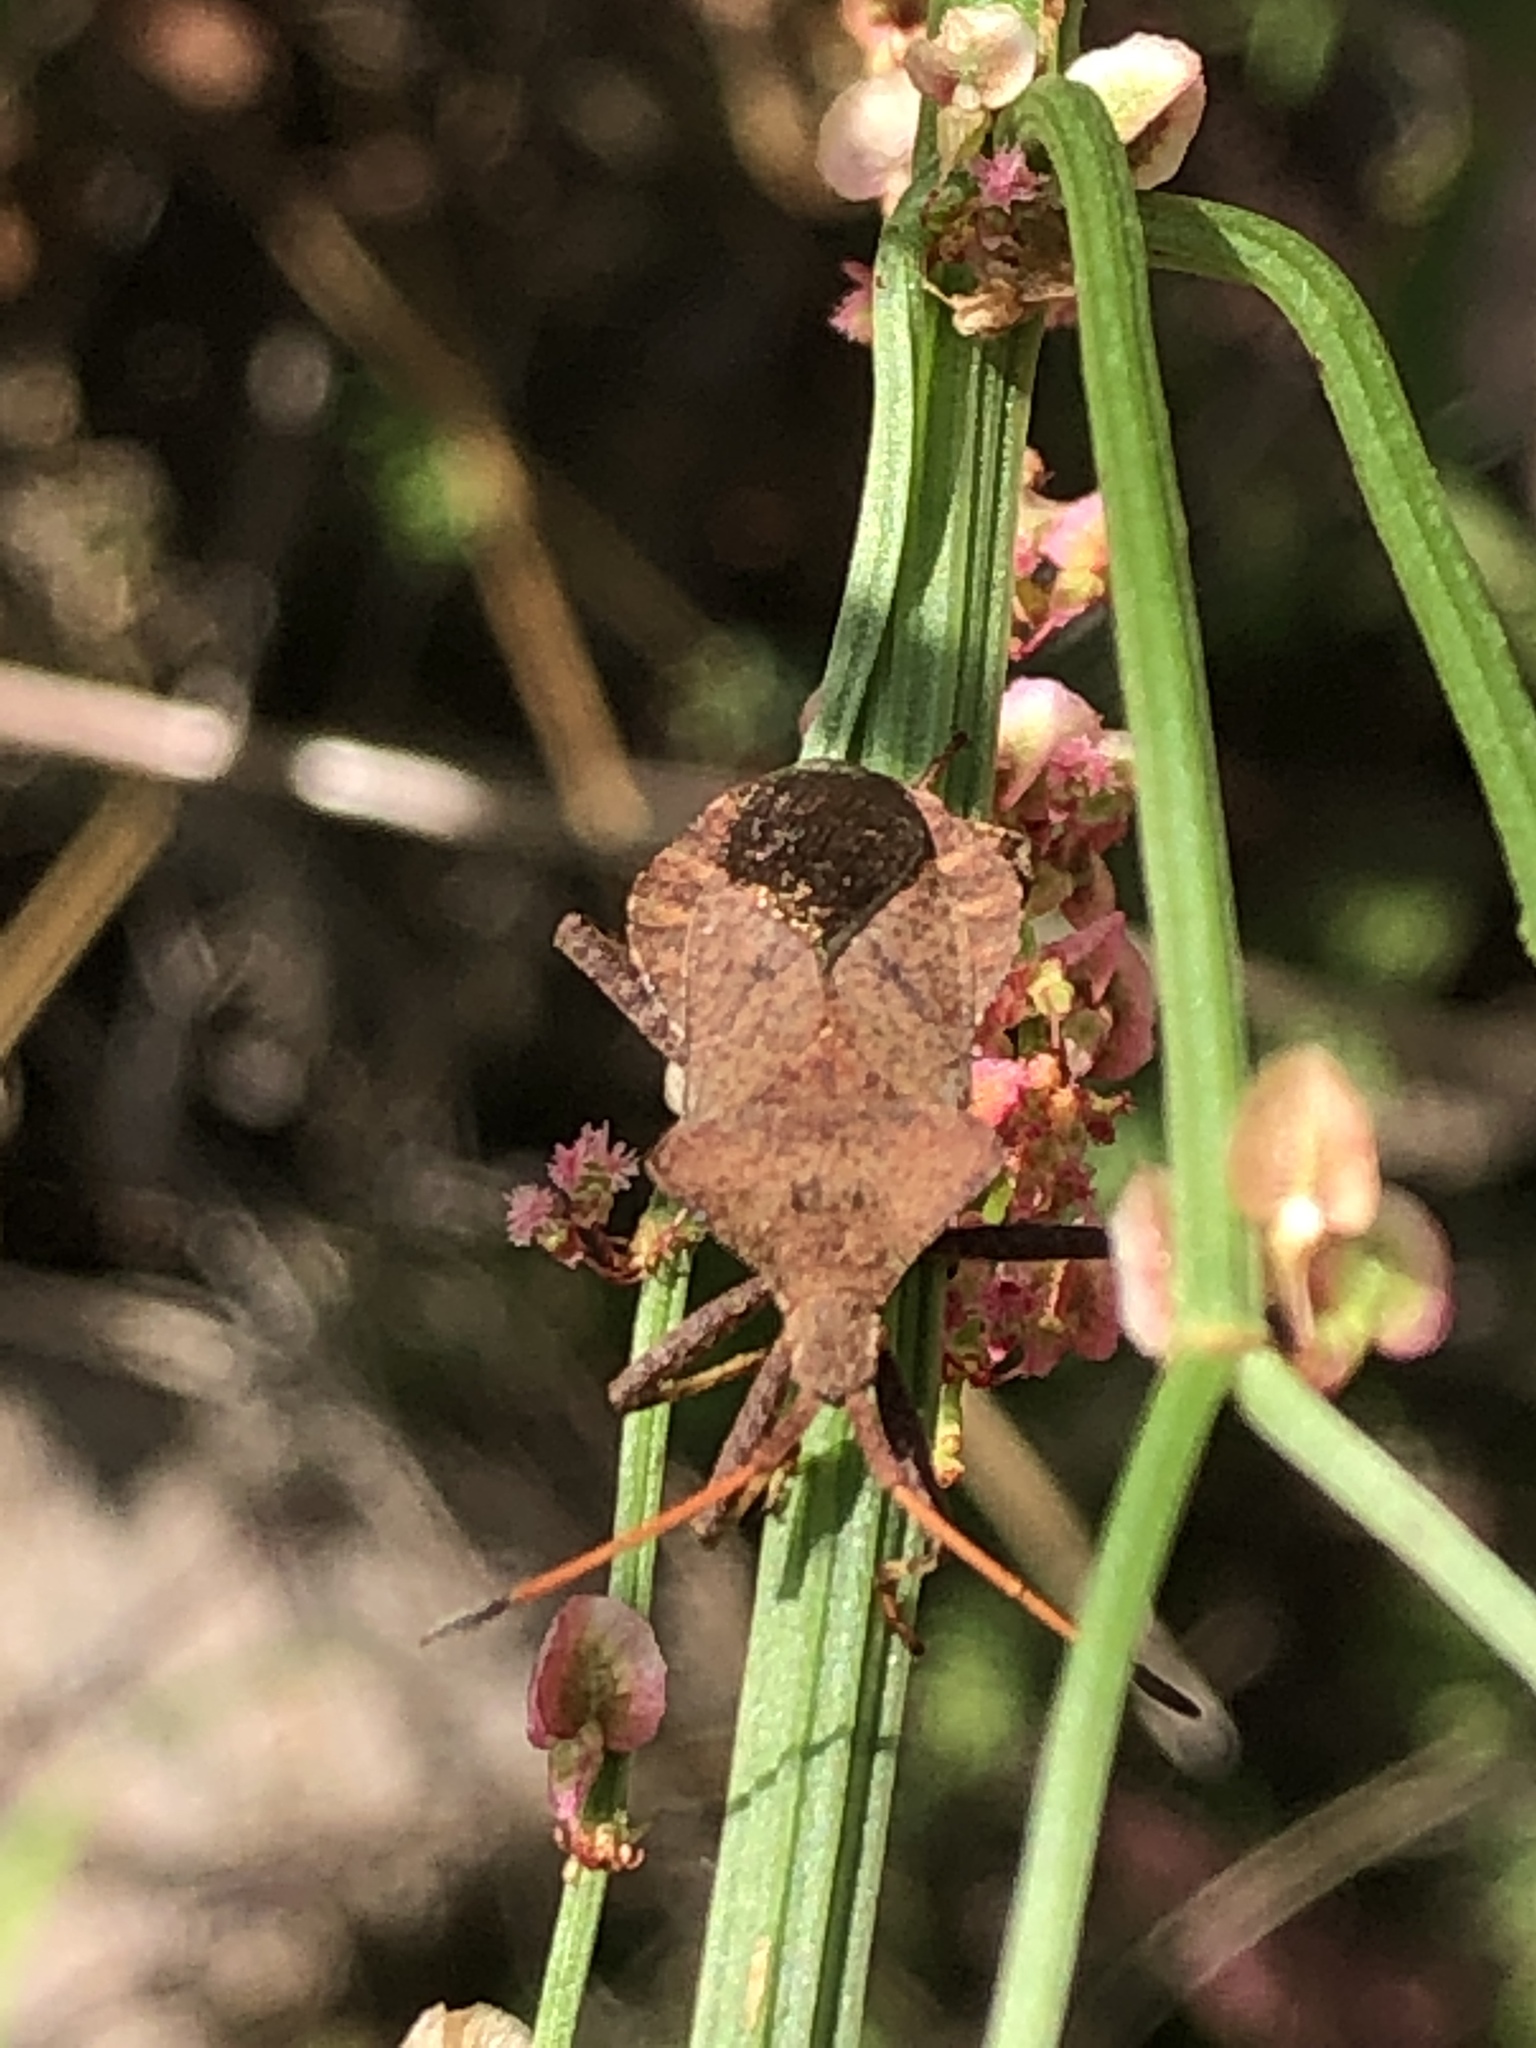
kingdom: Animalia
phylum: Arthropoda
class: Insecta
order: Hemiptera
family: Coreidae
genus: Coreus
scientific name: Coreus marginatus
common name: Dock bug
